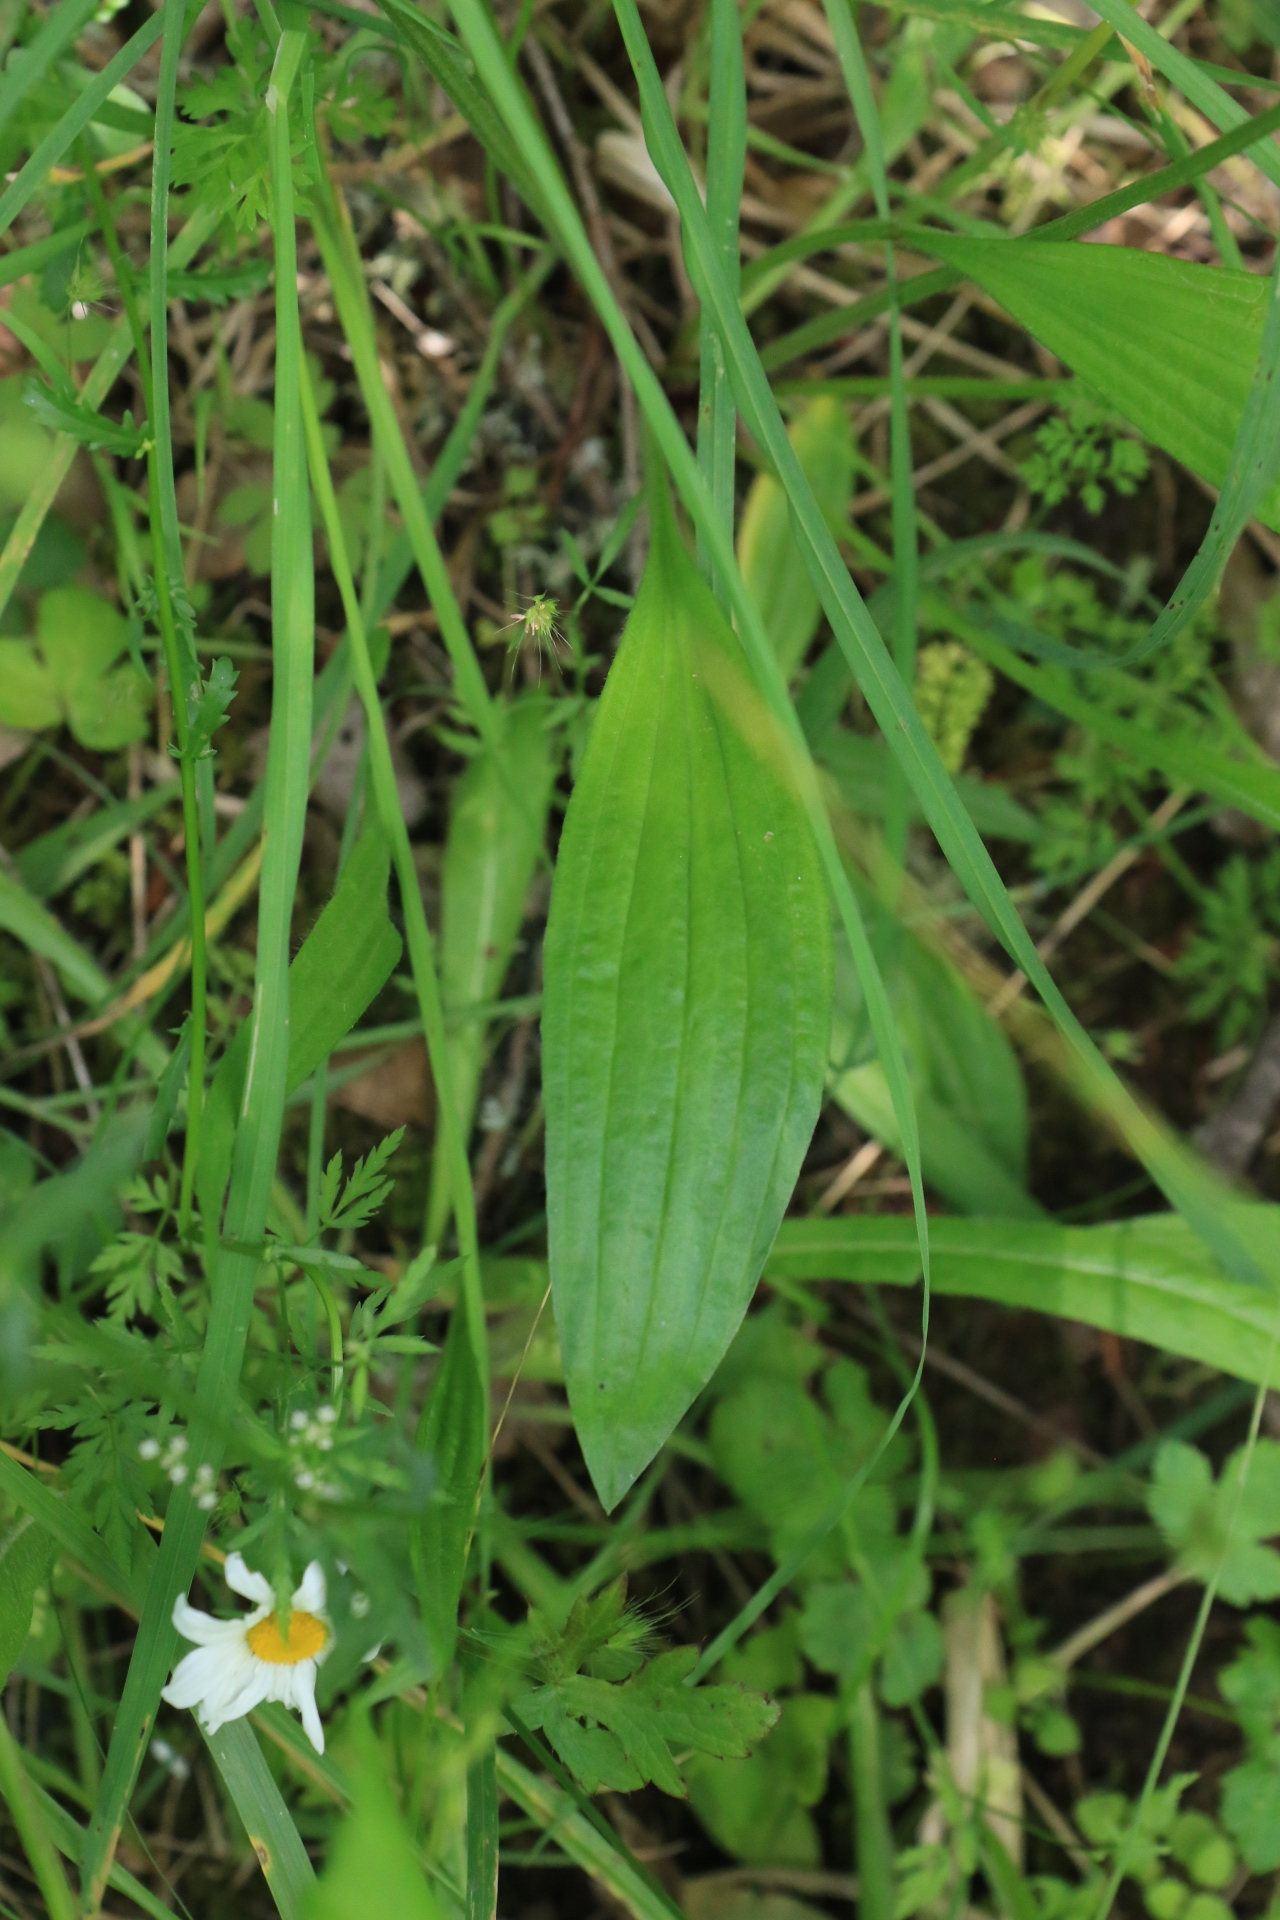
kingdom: Plantae
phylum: Tracheophyta
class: Magnoliopsida
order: Lamiales
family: Plantaginaceae
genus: Plantago
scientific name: Plantago lanceolata
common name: Ribwort plantain
